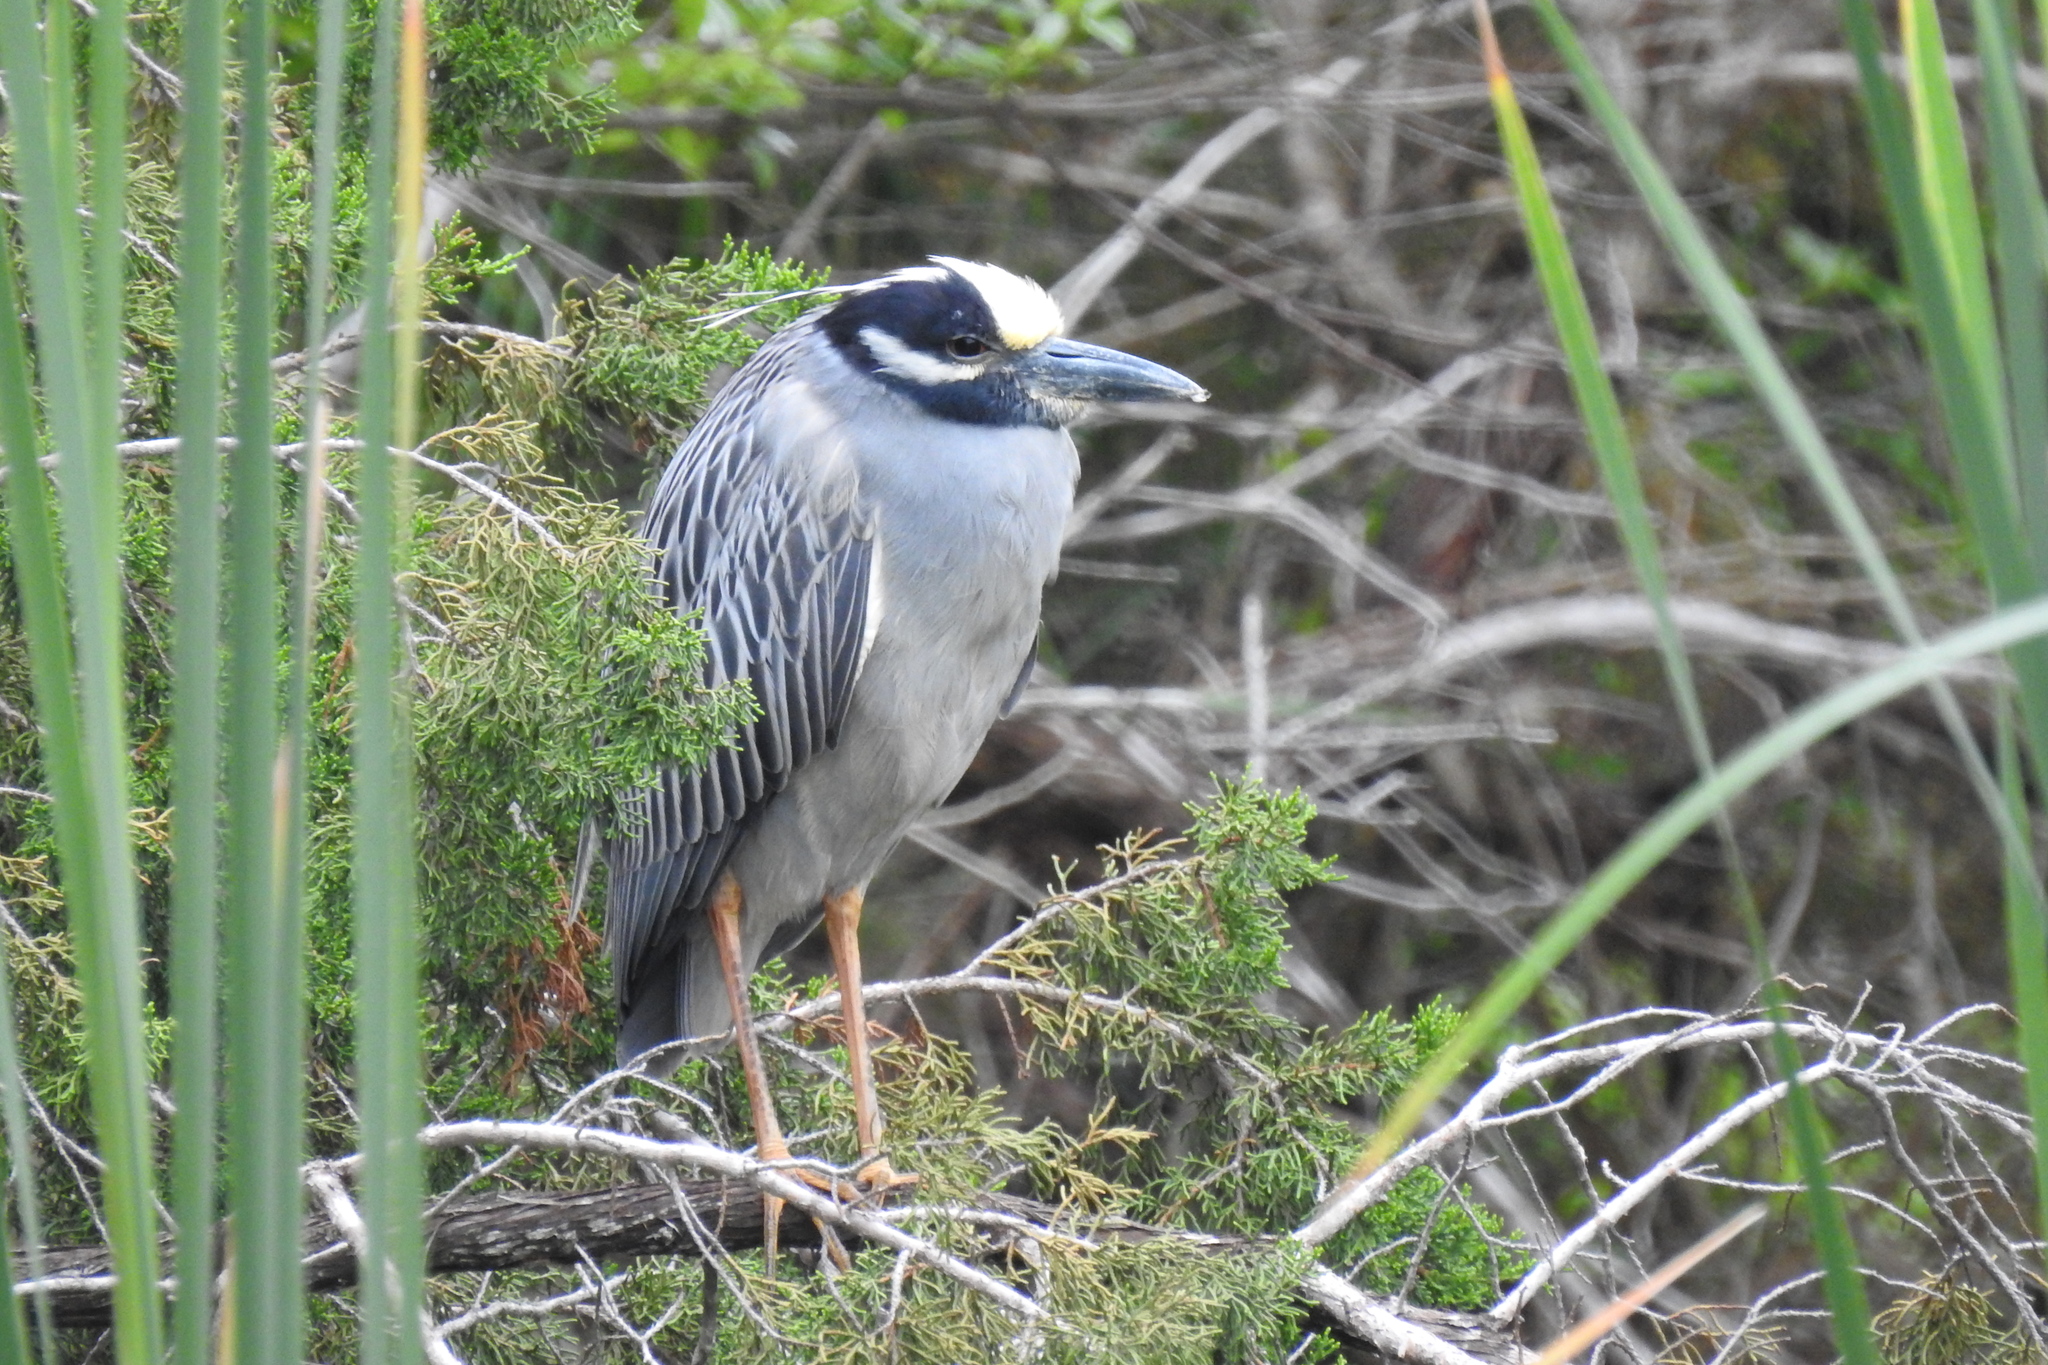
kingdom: Animalia
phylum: Chordata
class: Aves
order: Pelecaniformes
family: Ardeidae
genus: Nyctanassa
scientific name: Nyctanassa violacea
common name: Yellow-crowned night heron
